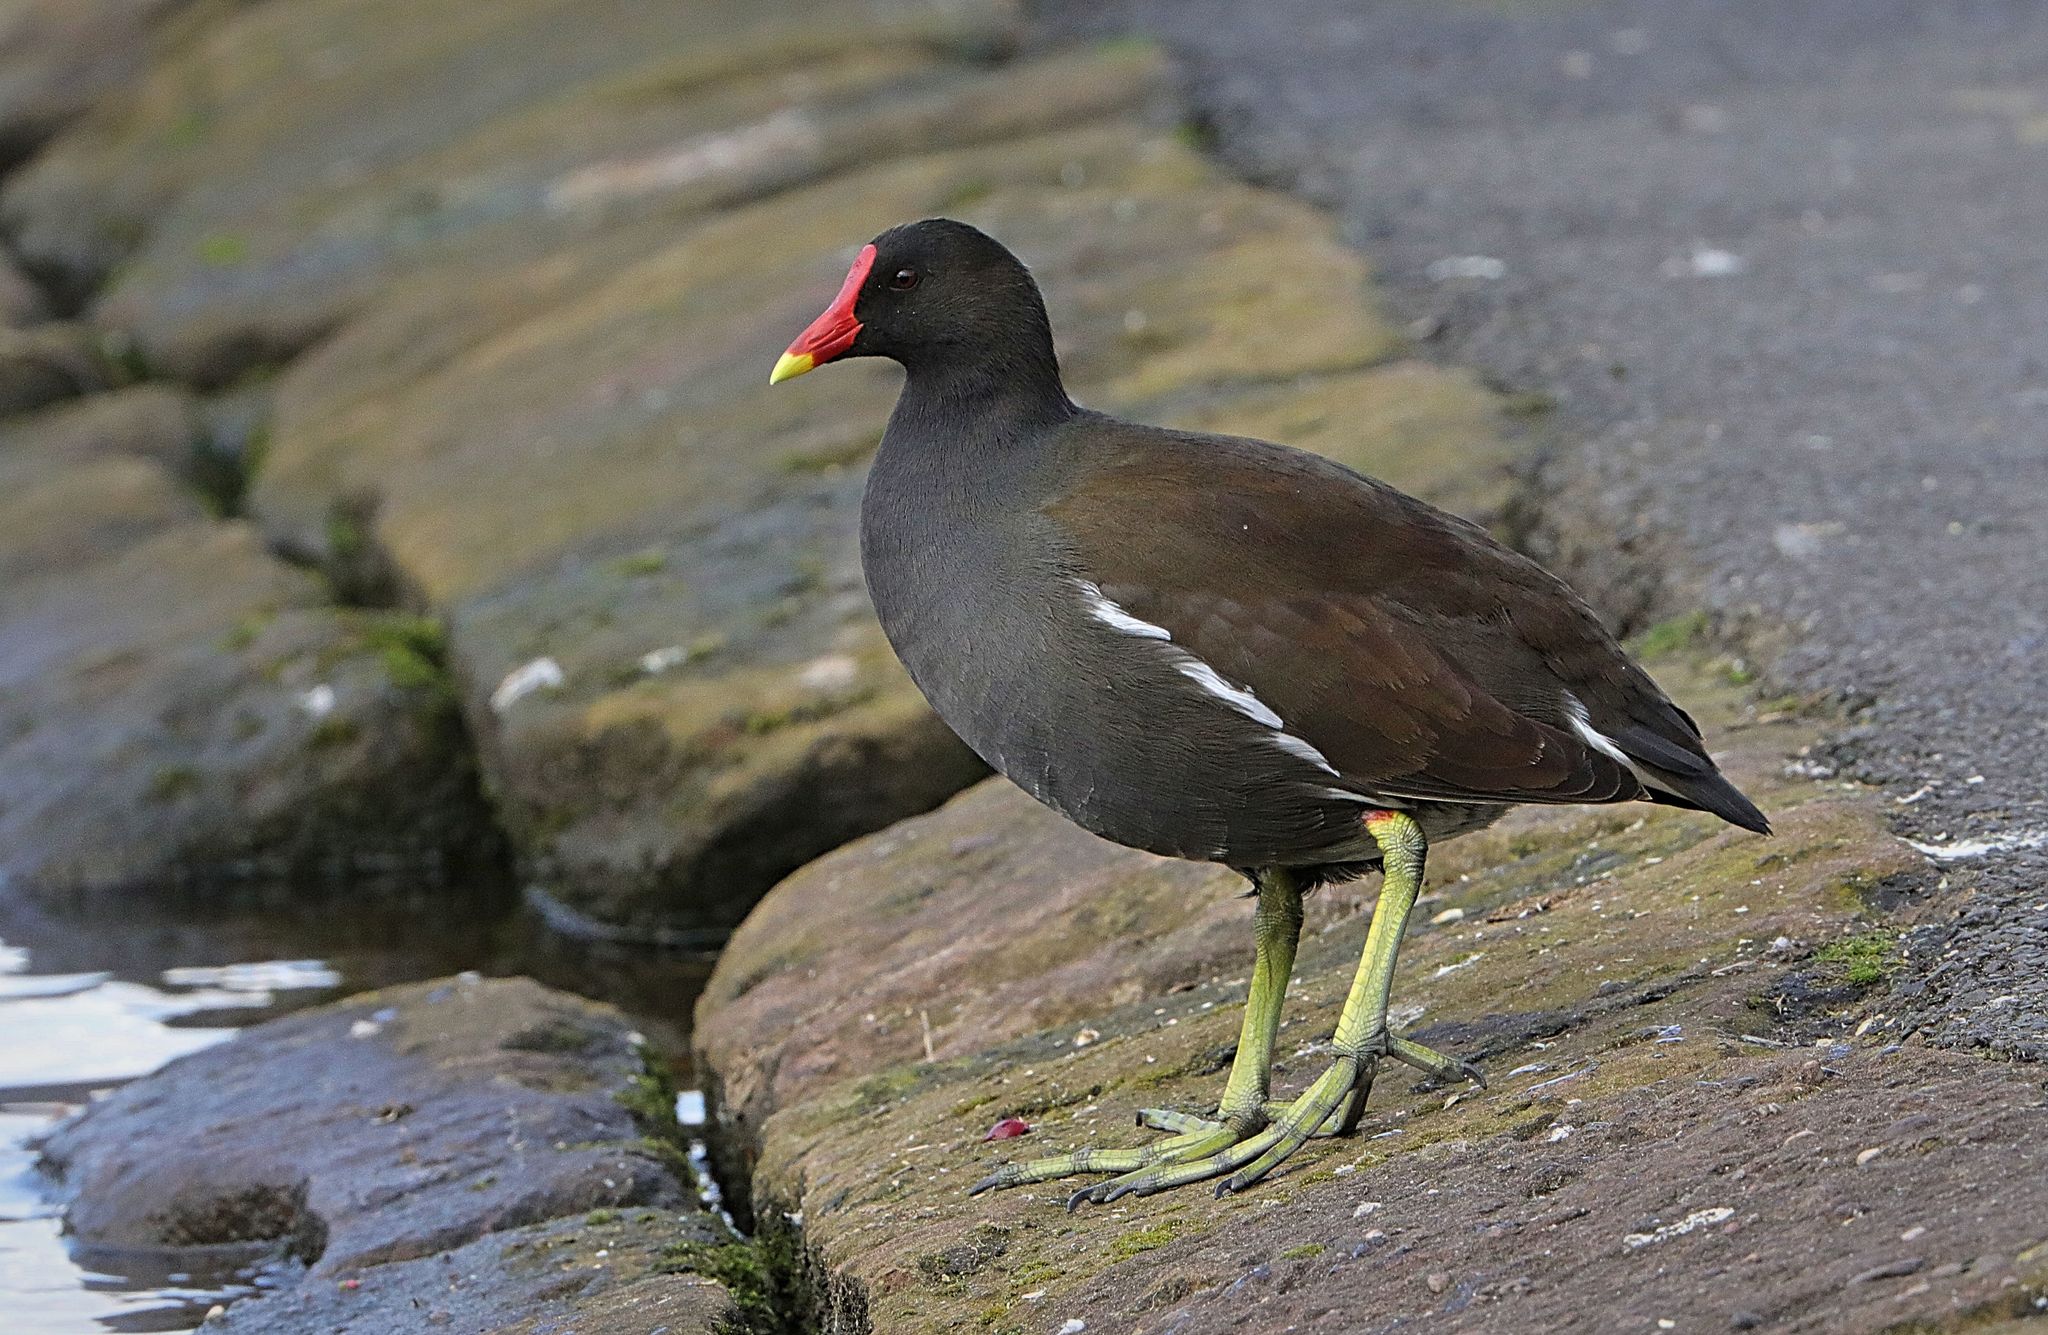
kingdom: Animalia
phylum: Chordata
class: Aves
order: Gruiformes
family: Rallidae
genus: Gallinula
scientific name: Gallinula chloropus
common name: Common moorhen
